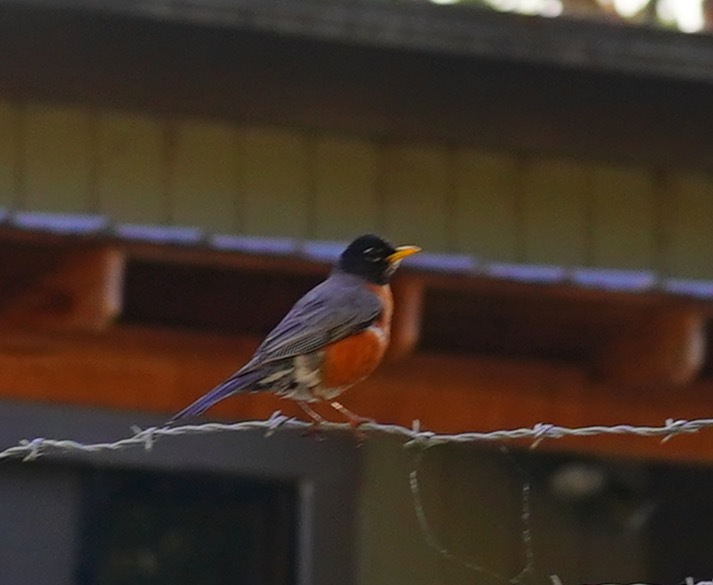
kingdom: Animalia
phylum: Chordata
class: Aves
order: Passeriformes
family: Turdidae
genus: Turdus
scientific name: Turdus migratorius
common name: American robin
